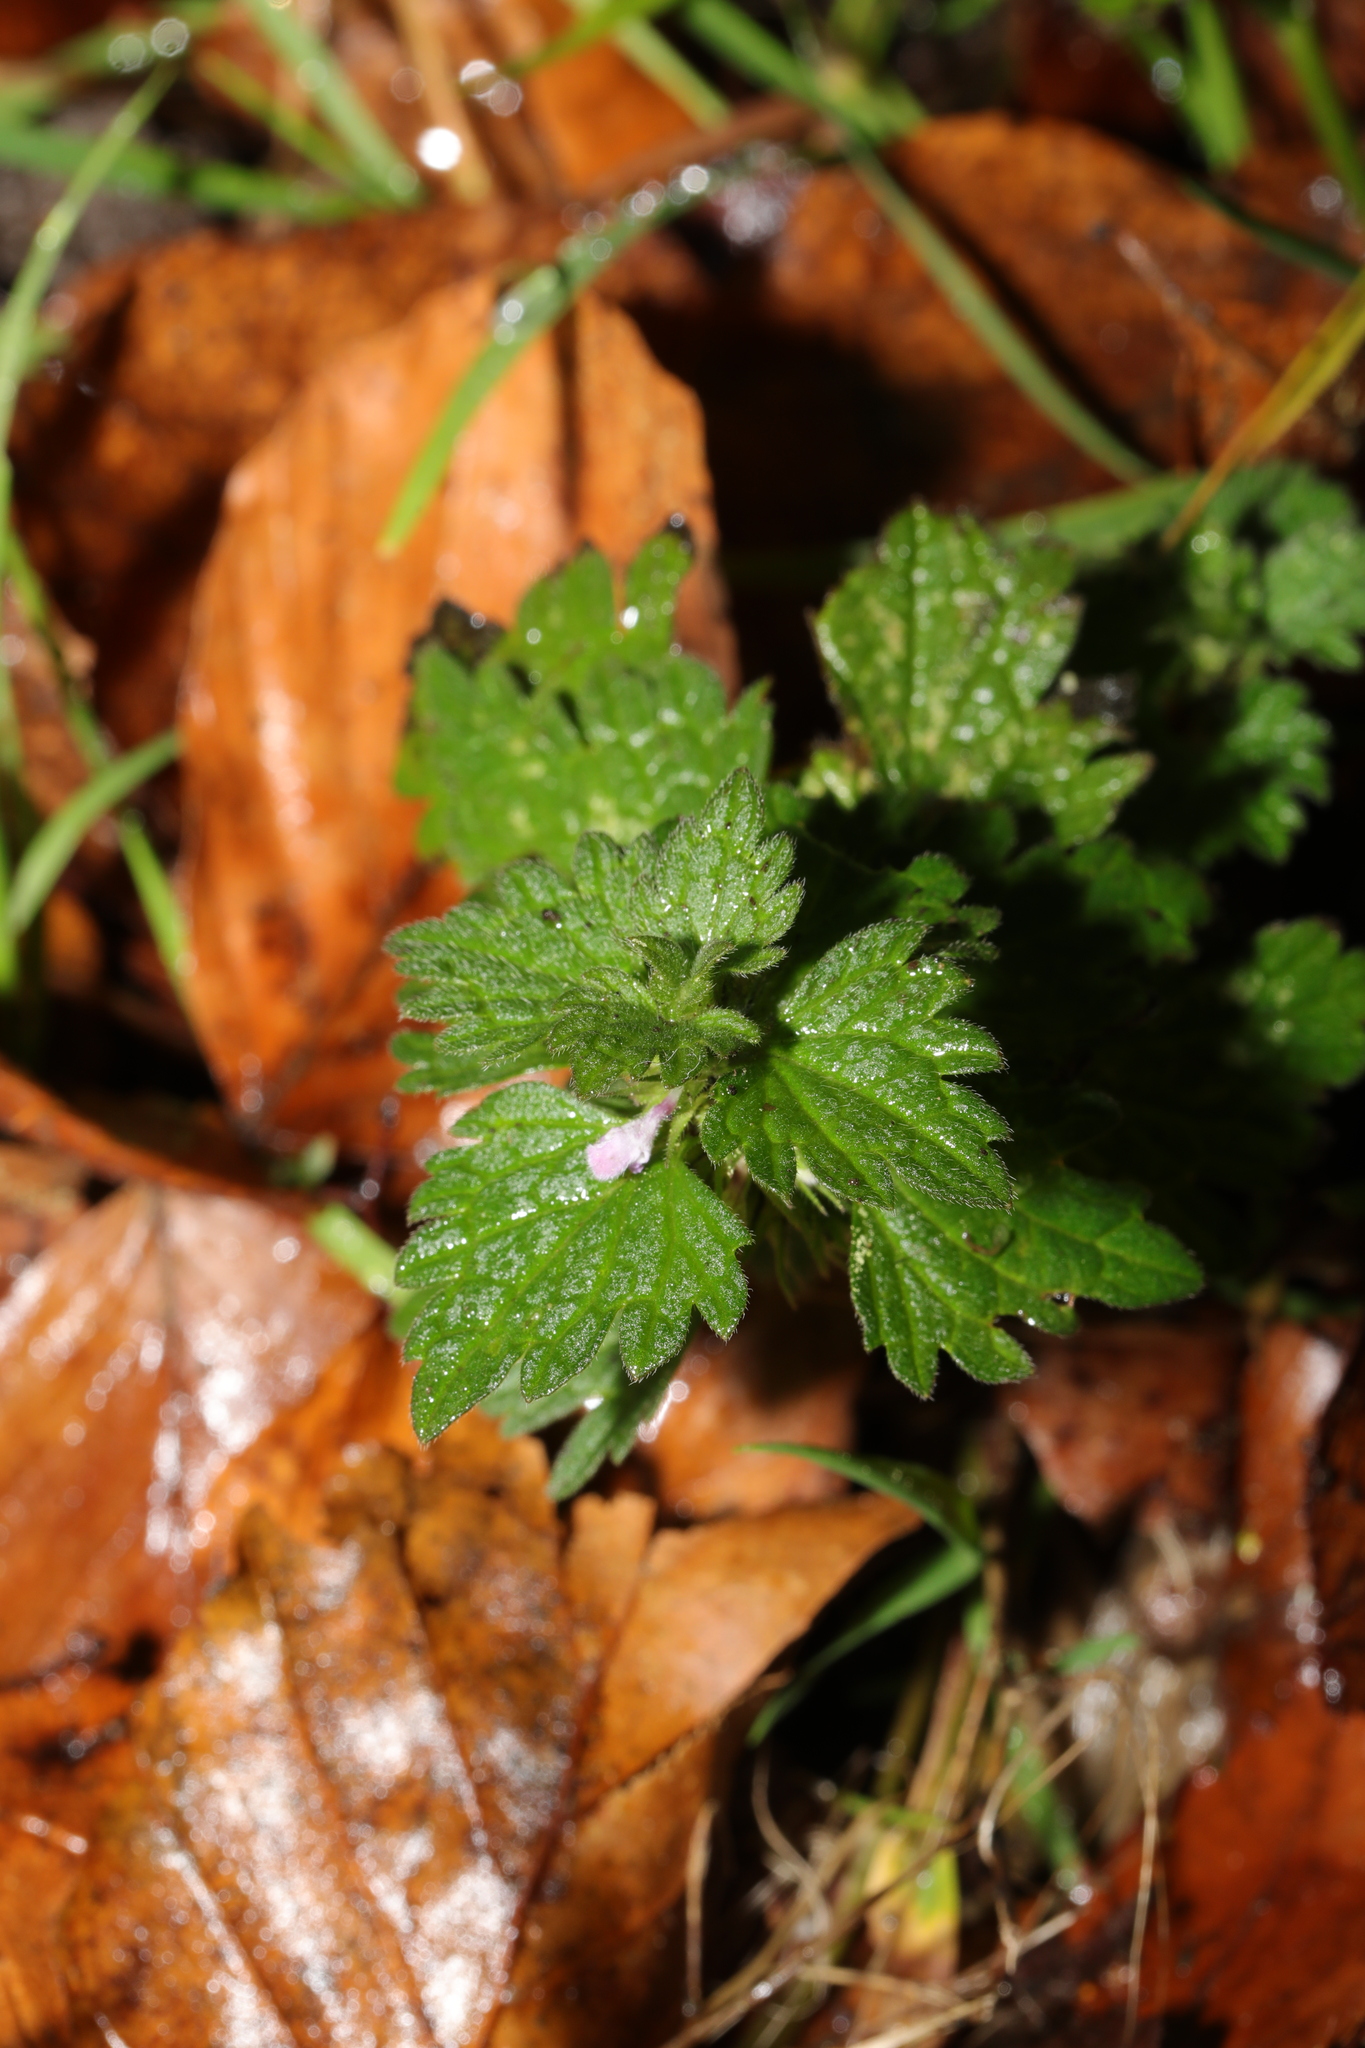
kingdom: Plantae
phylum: Tracheophyta
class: Magnoliopsida
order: Lamiales
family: Lamiaceae
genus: Lamium
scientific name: Lamium purpureum
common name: Red dead-nettle
